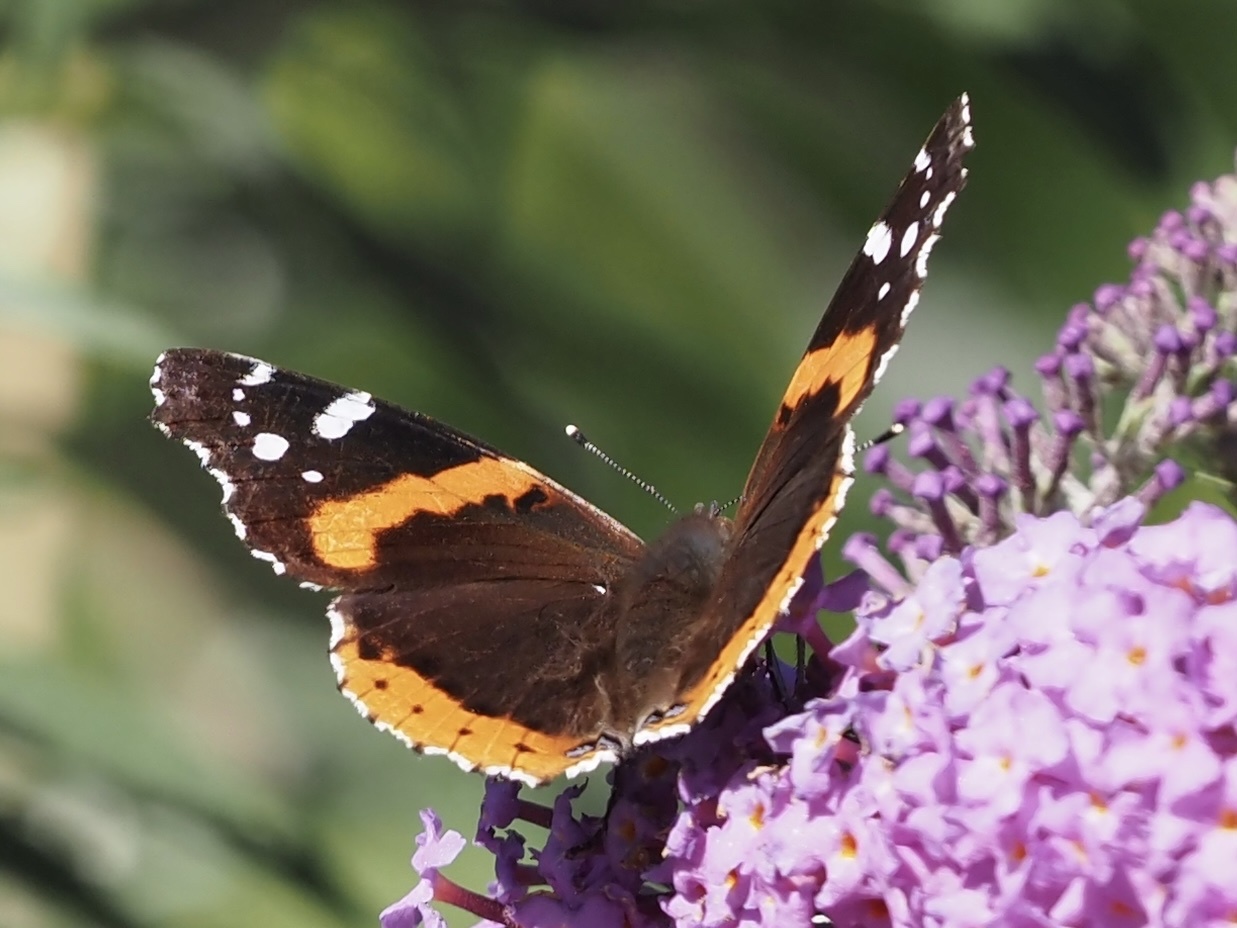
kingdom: Animalia
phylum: Arthropoda
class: Insecta
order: Lepidoptera
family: Nymphalidae
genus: Vanessa
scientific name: Vanessa atalanta
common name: Red admiral
